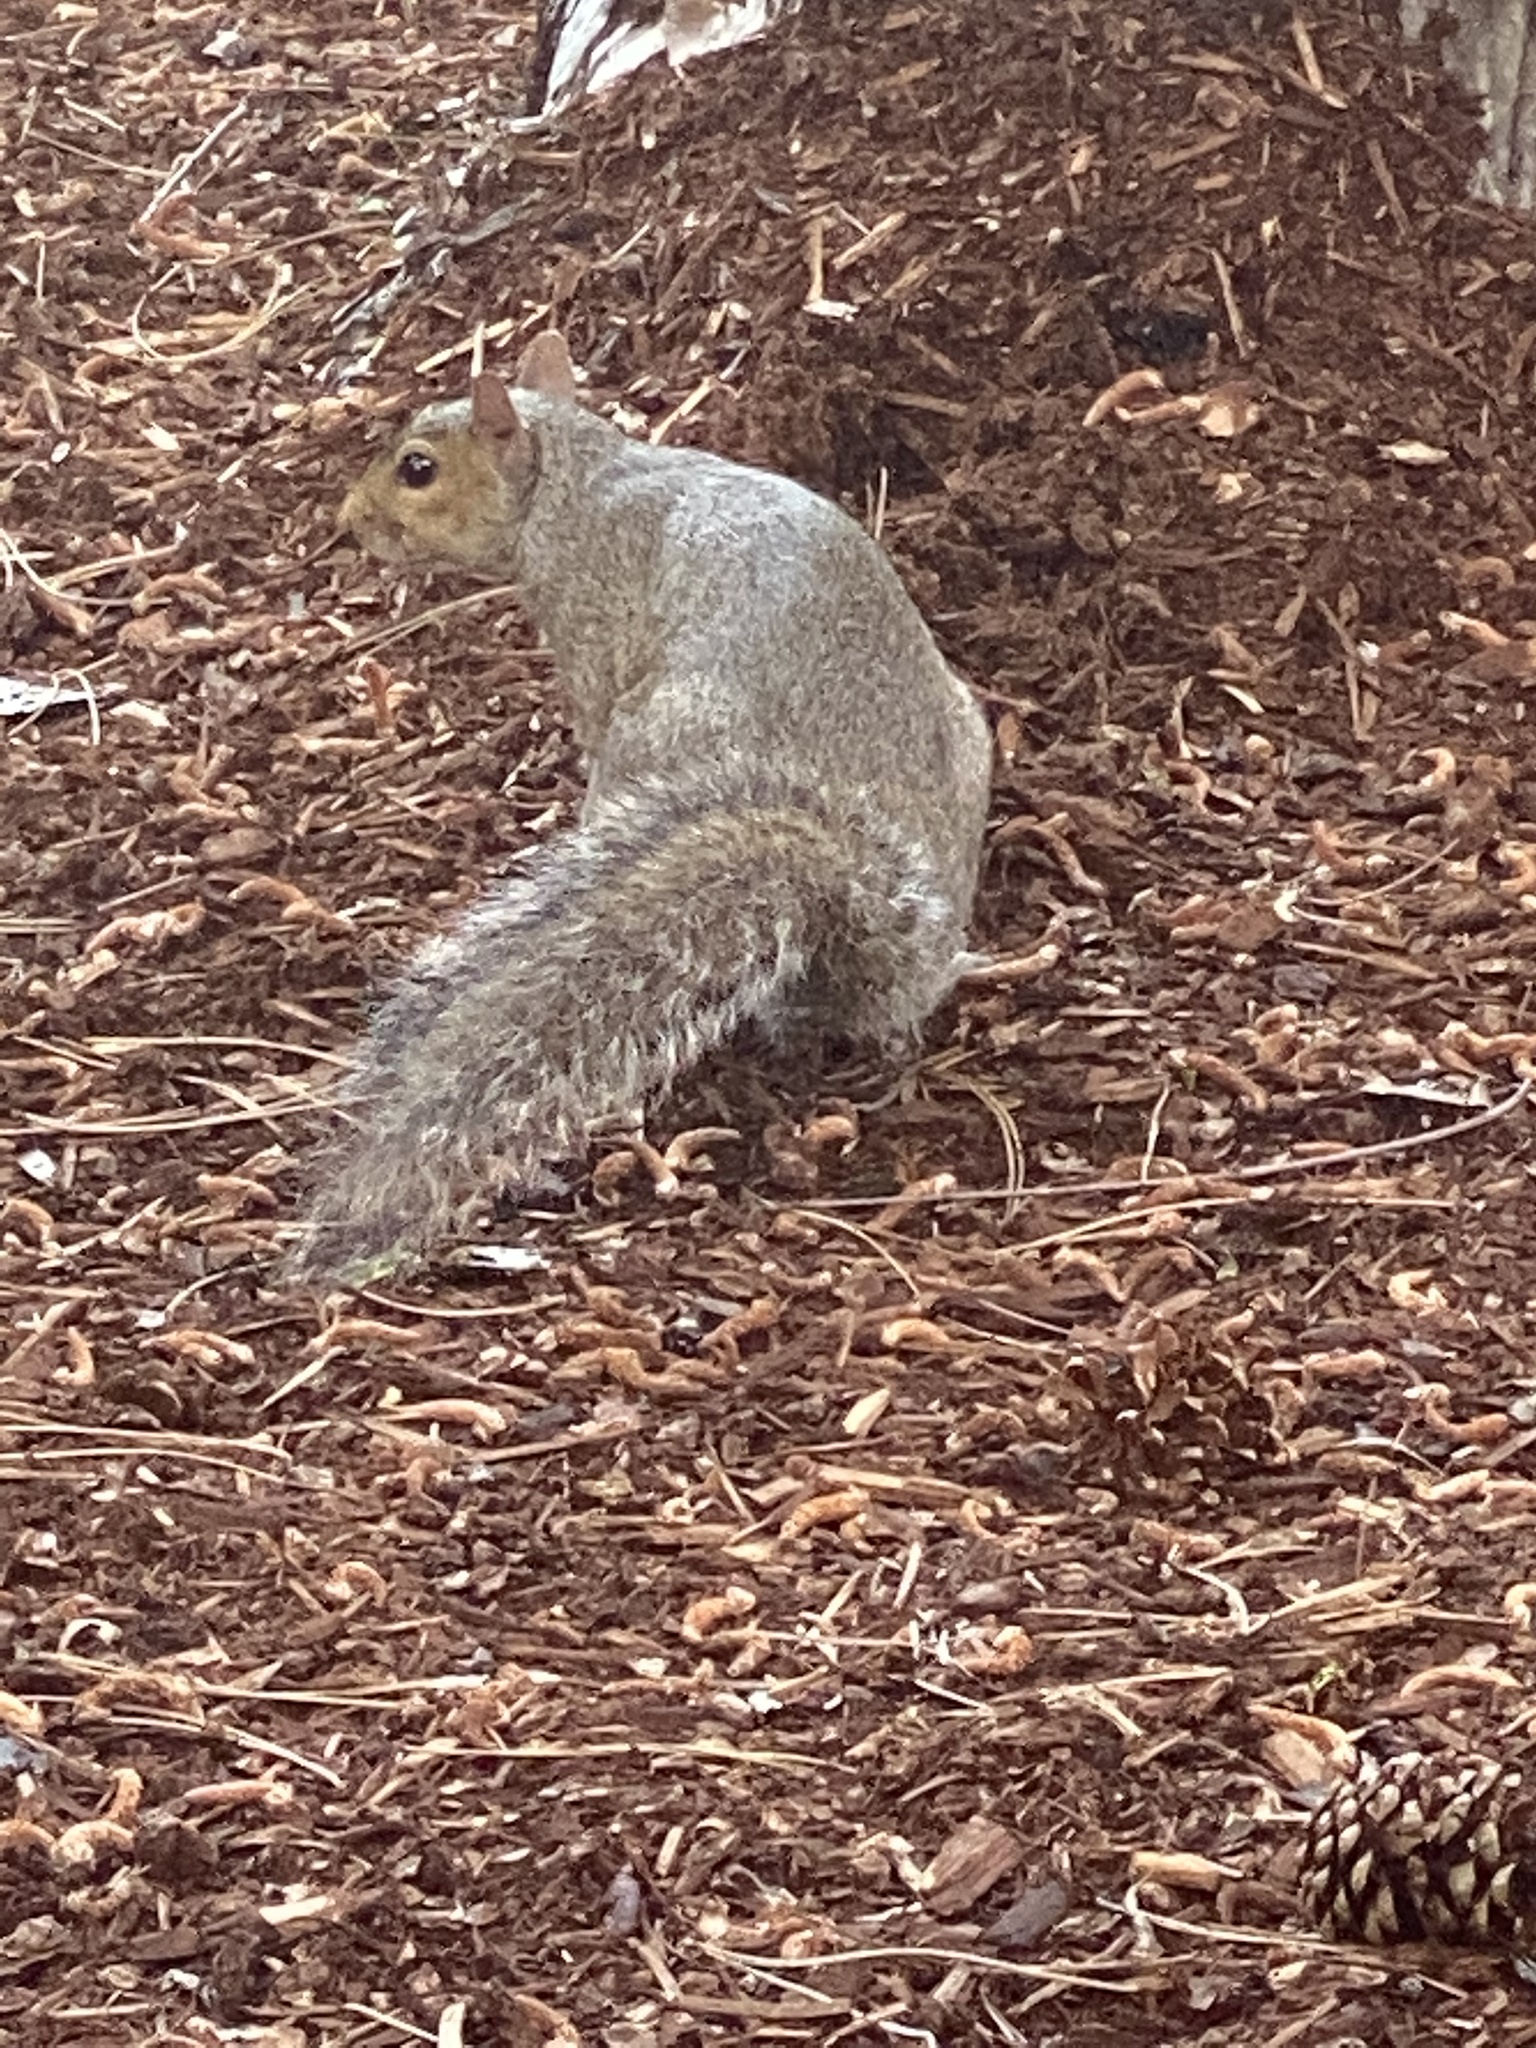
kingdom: Animalia
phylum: Chordata
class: Mammalia
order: Rodentia
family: Sciuridae
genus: Sciurus
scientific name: Sciurus carolinensis
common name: Eastern gray squirrel
